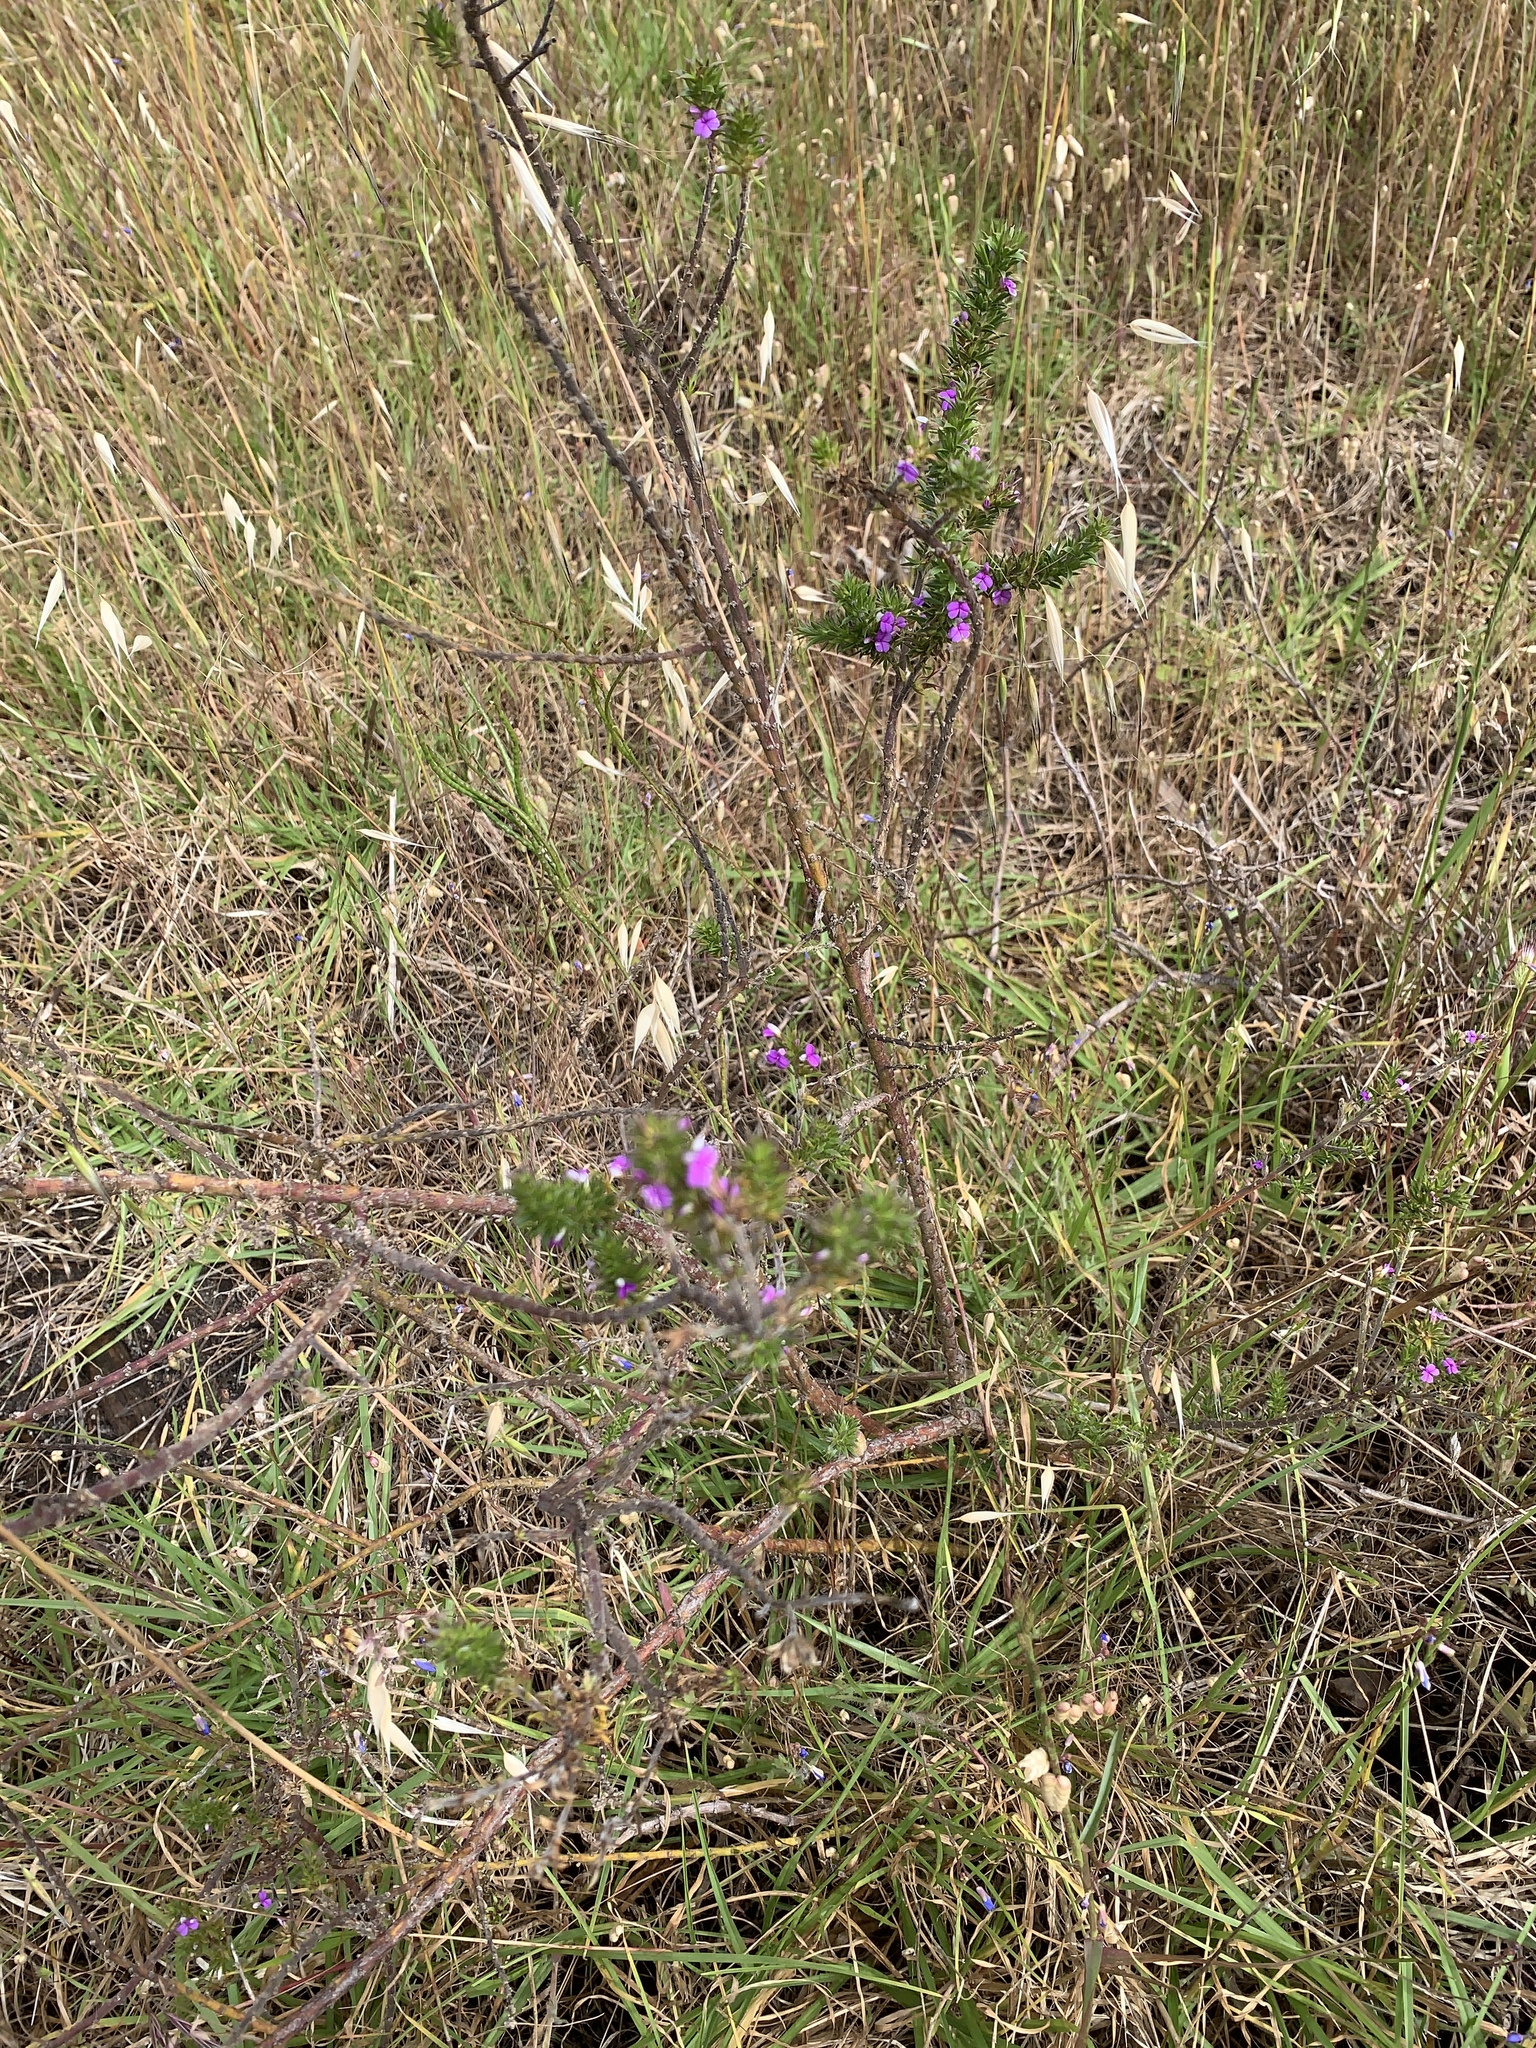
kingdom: Plantae
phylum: Tracheophyta
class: Magnoliopsida
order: Fabales
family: Polygalaceae
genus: Muraltia
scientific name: Muraltia heisteria
